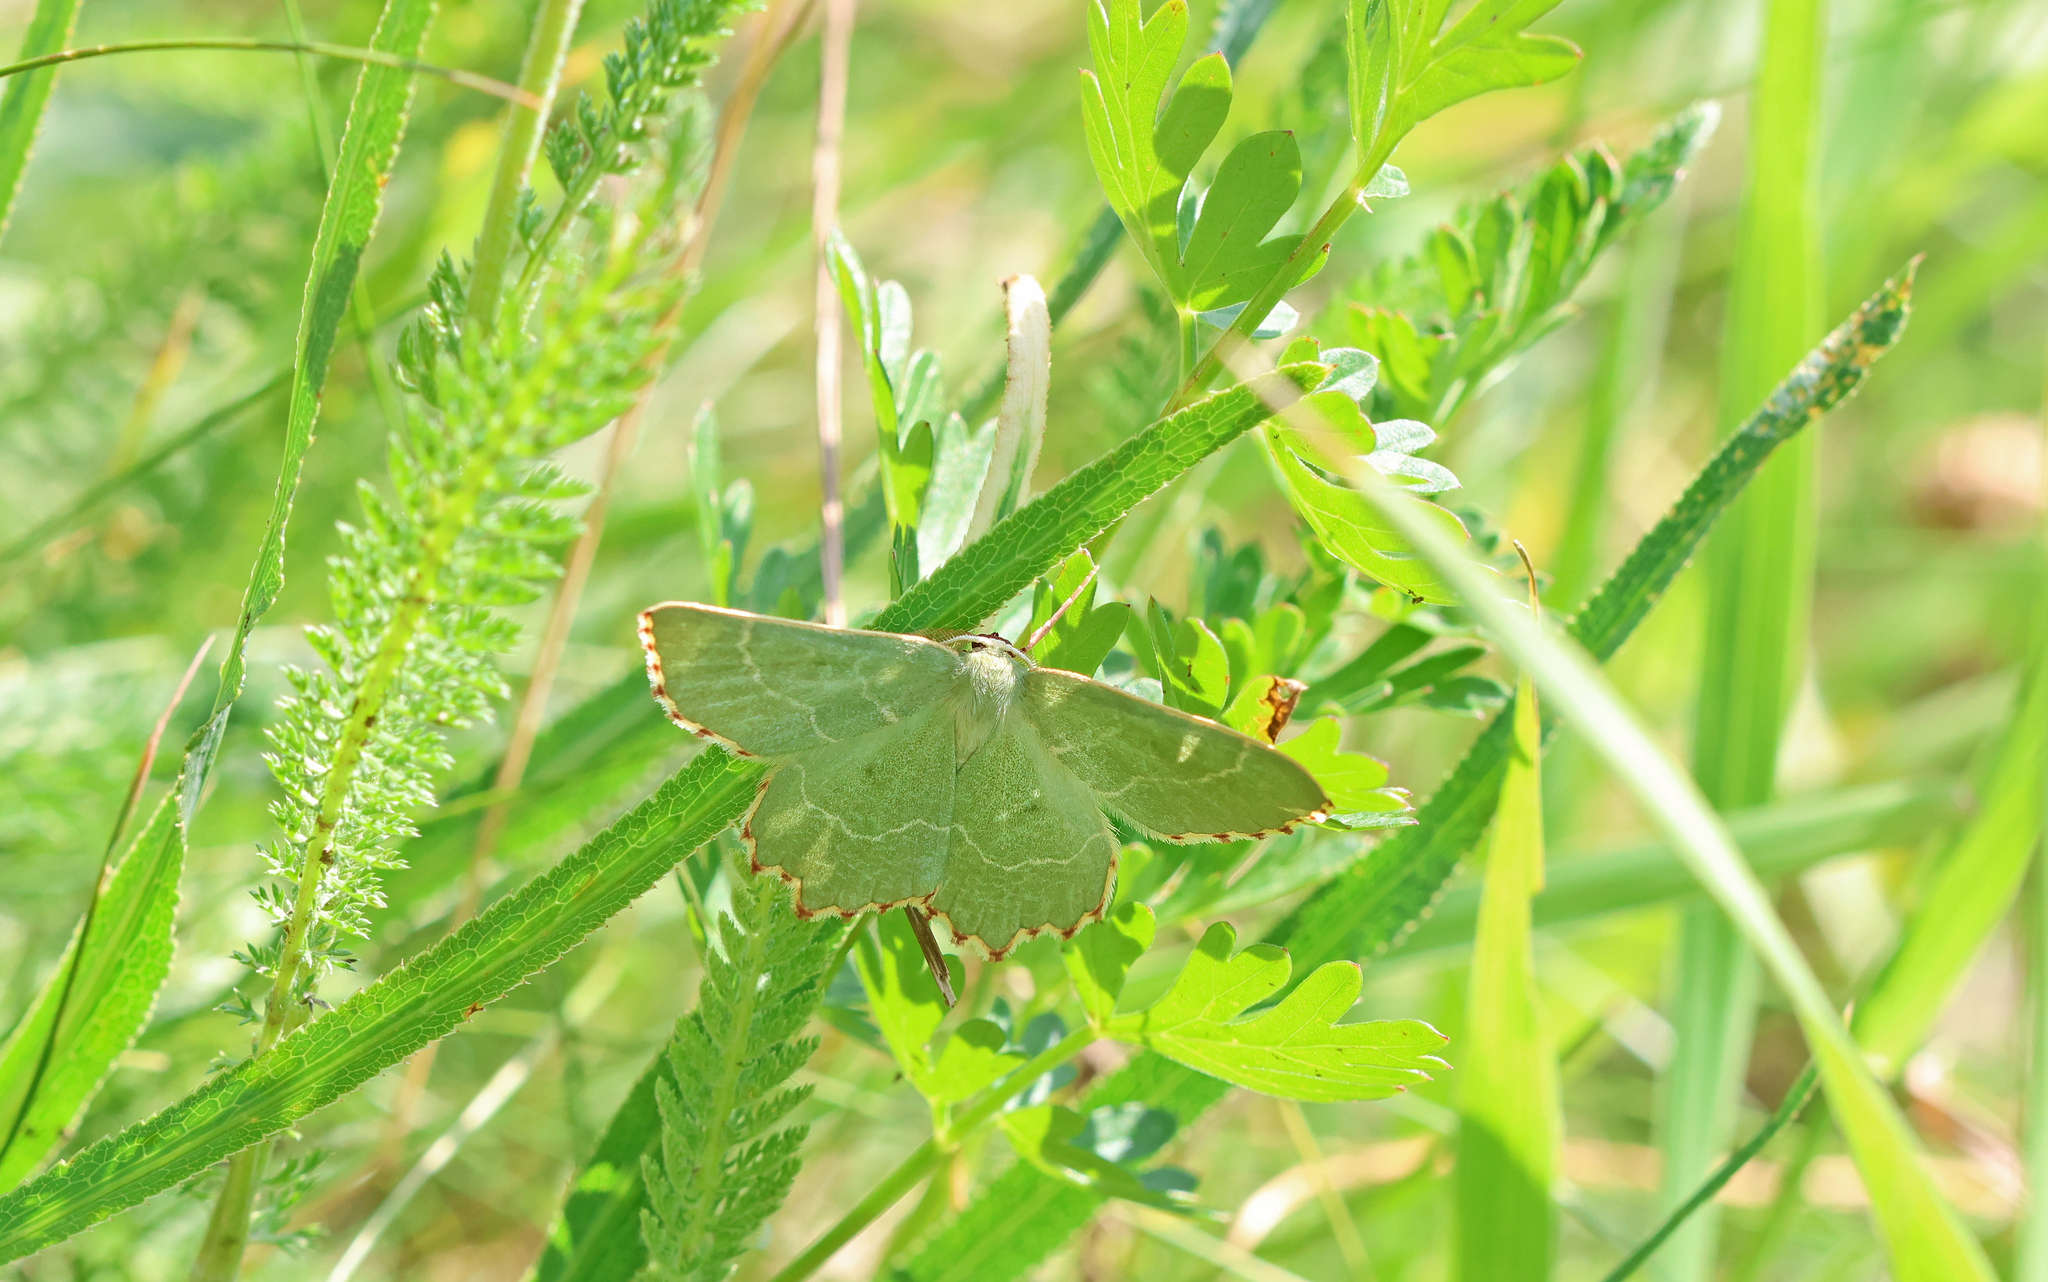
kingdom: Animalia
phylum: Arthropoda
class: Insecta
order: Lepidoptera
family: Geometridae
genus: Thalera
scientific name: Thalera fimbrialis
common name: Sussex emerald
